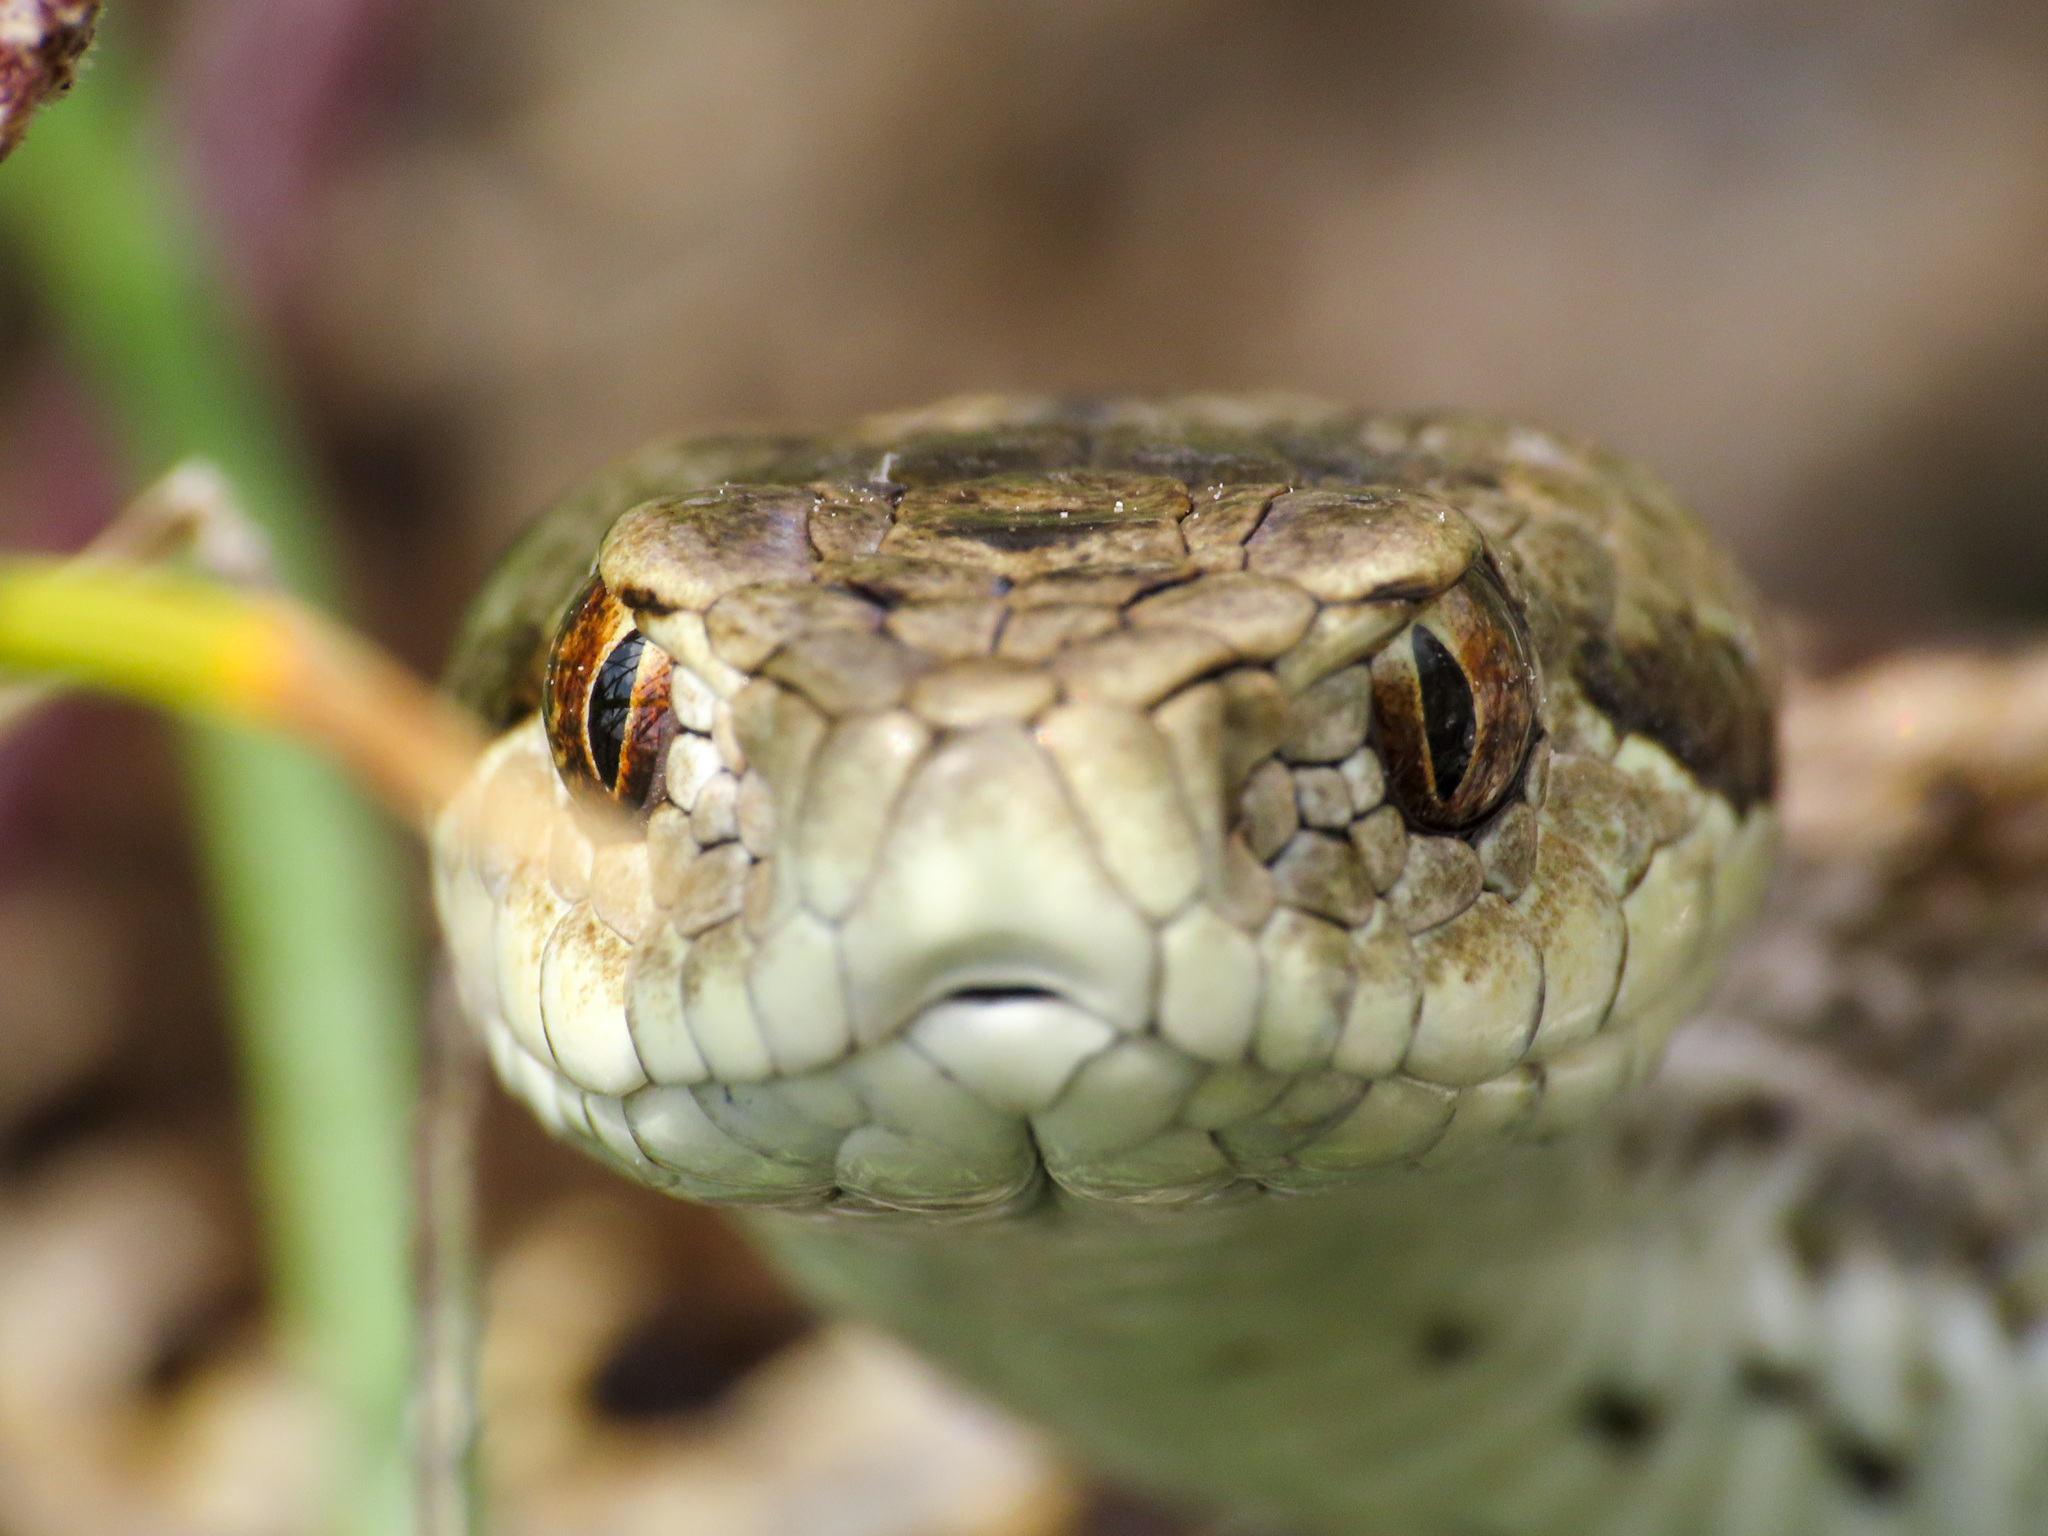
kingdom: Animalia
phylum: Chordata
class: Squamata
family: Viperidae
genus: Vipera
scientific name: Vipera ursinii
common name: Meadow viper
